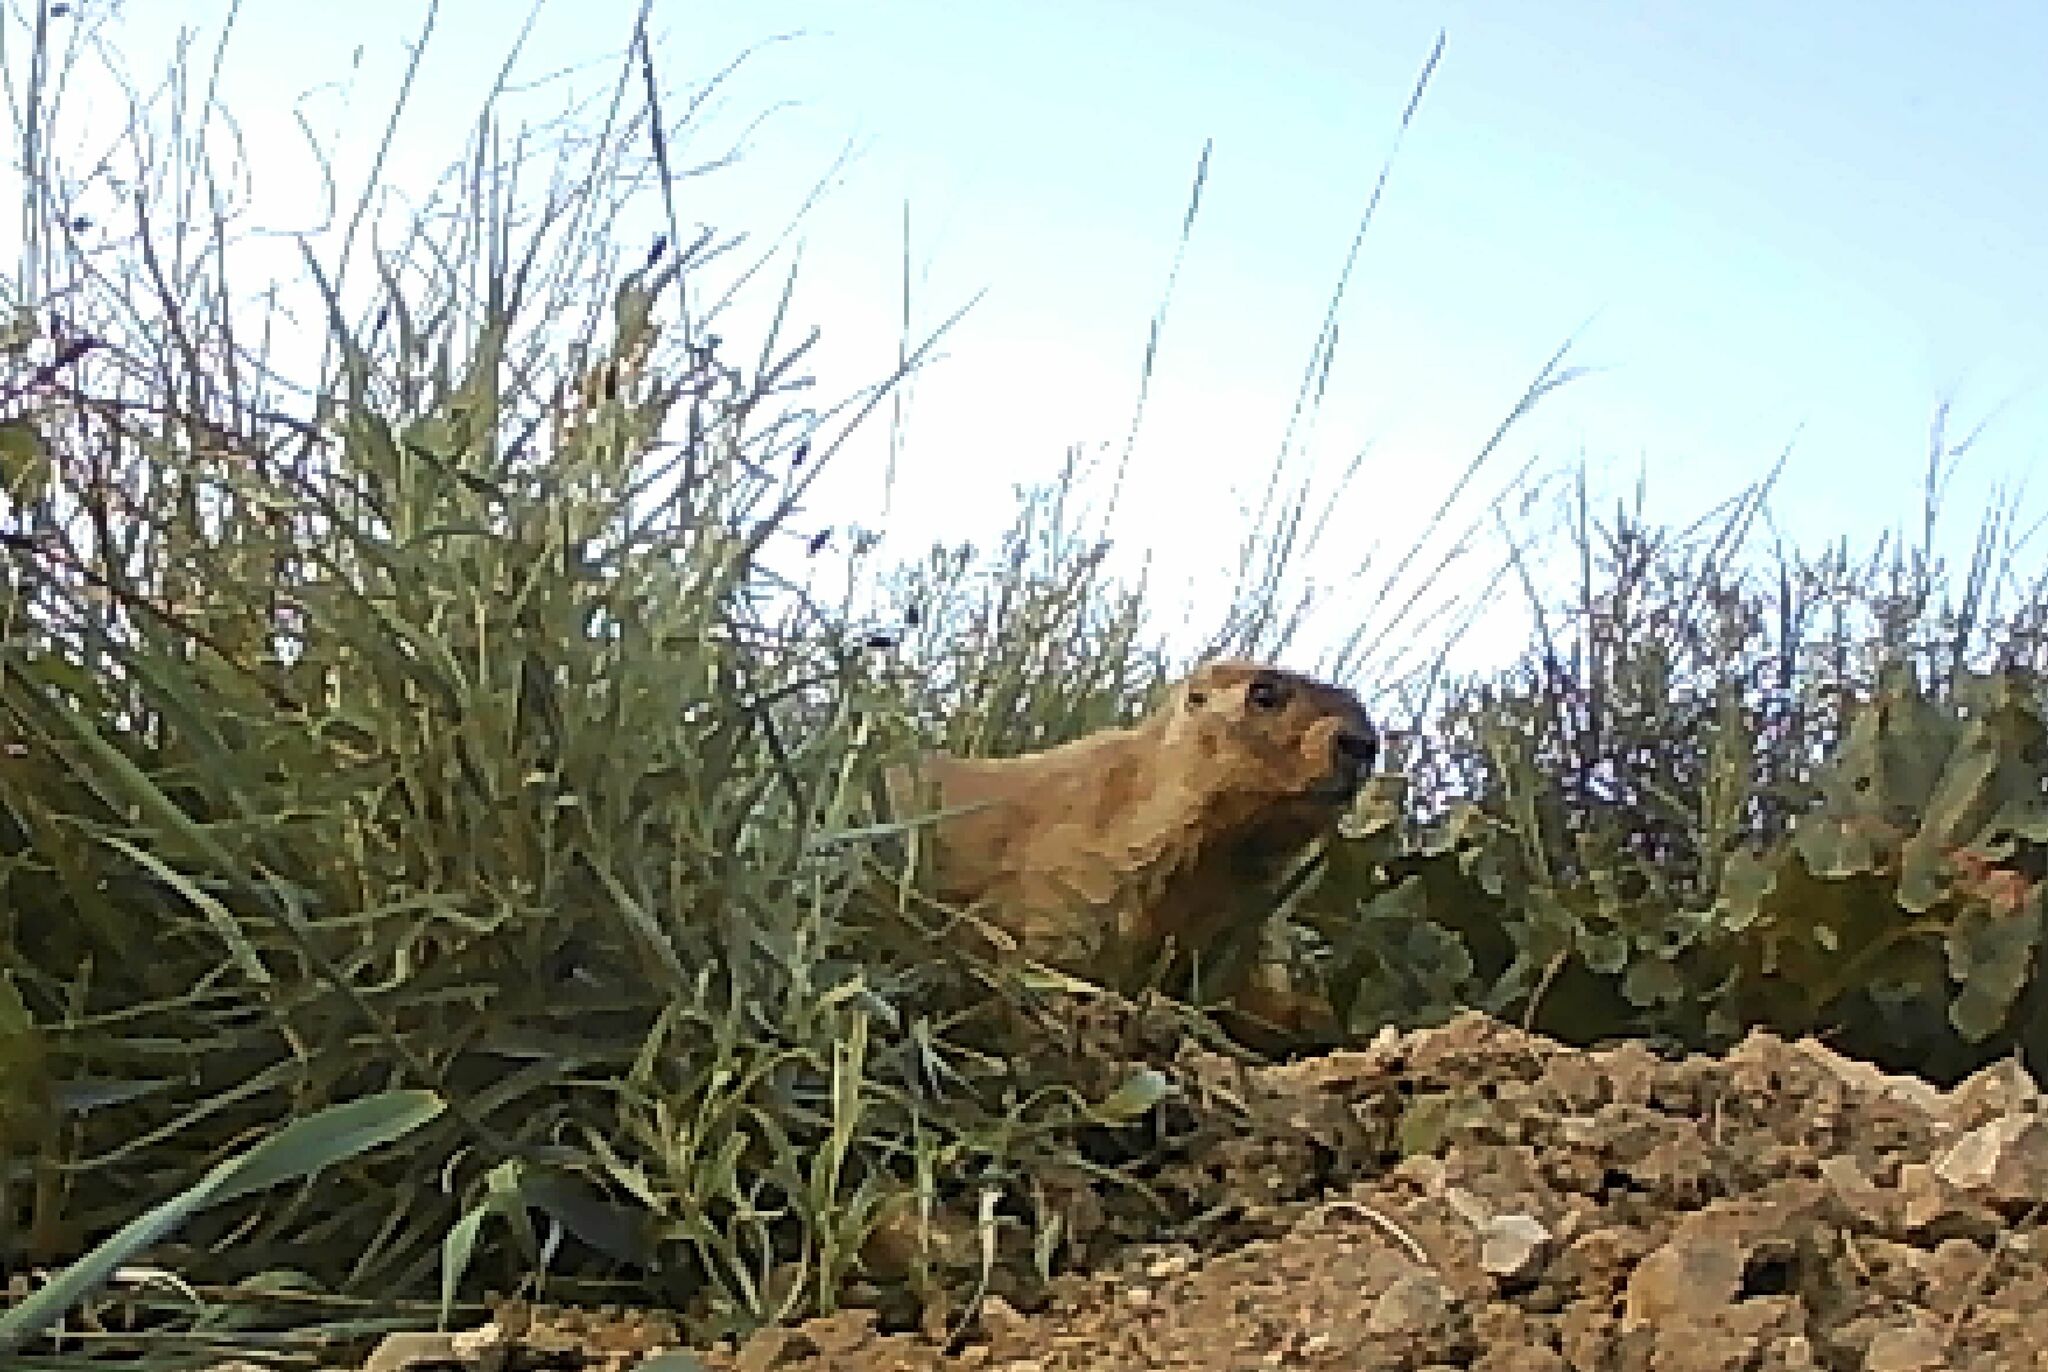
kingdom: Animalia
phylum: Chordata
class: Mammalia
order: Rodentia
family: Sciuridae
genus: Marmota
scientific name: Marmota sibirica
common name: Tarbagan marmot
